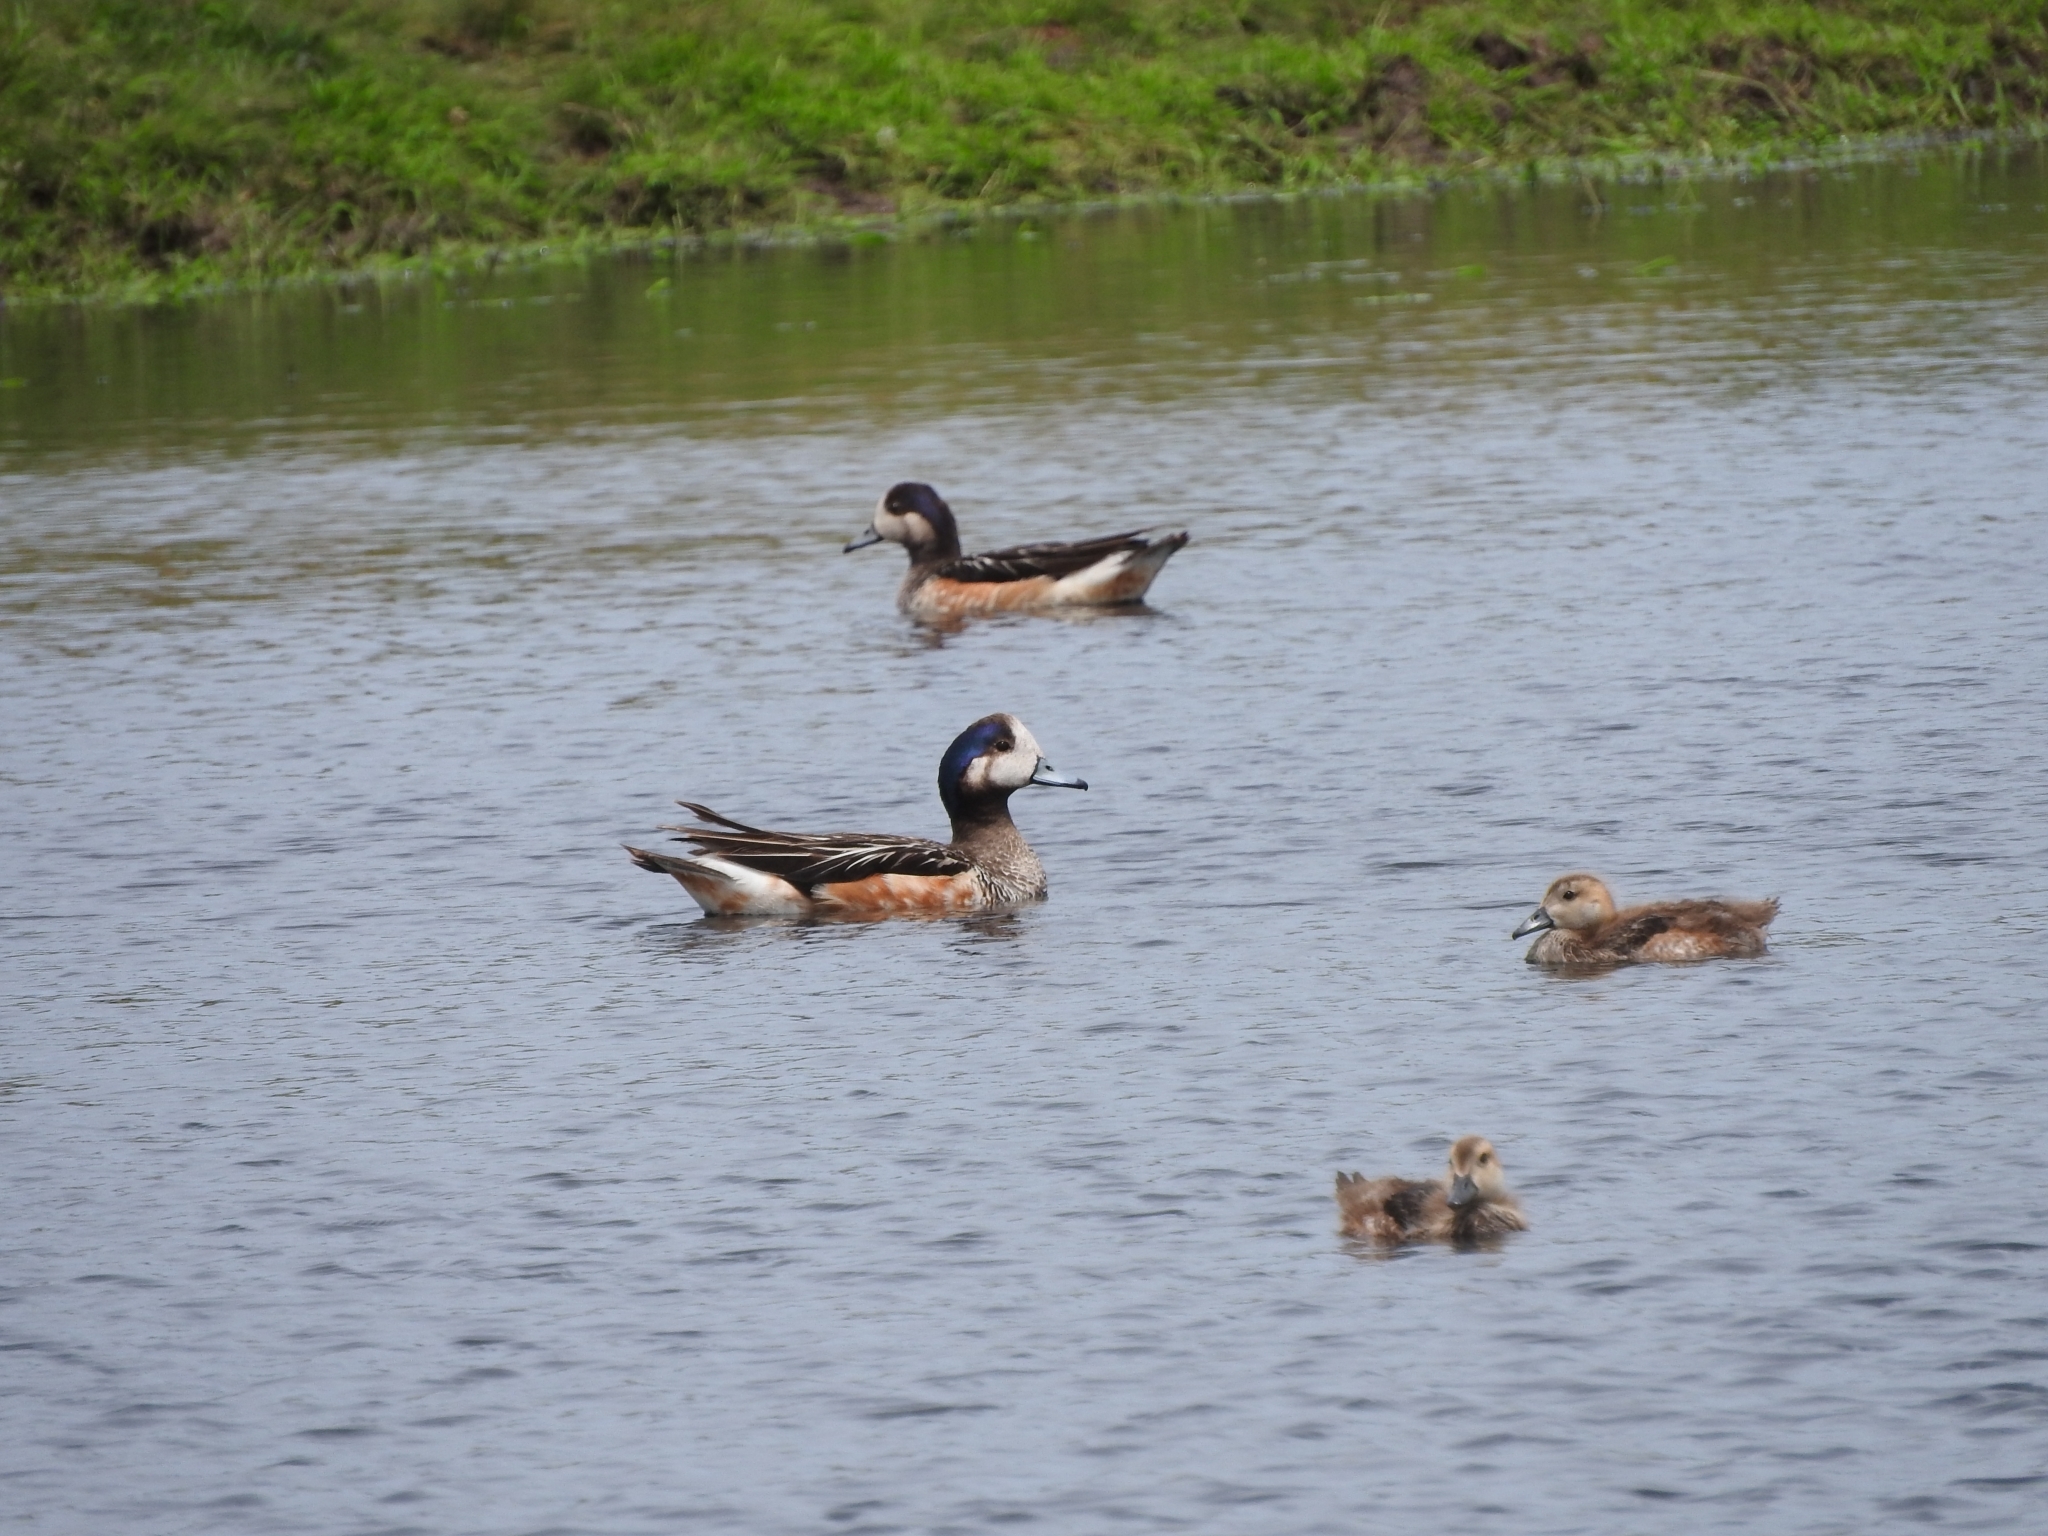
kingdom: Animalia
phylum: Chordata
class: Aves
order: Anseriformes
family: Anatidae
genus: Mareca
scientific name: Mareca sibilatrix
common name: Chiloe wigeon
